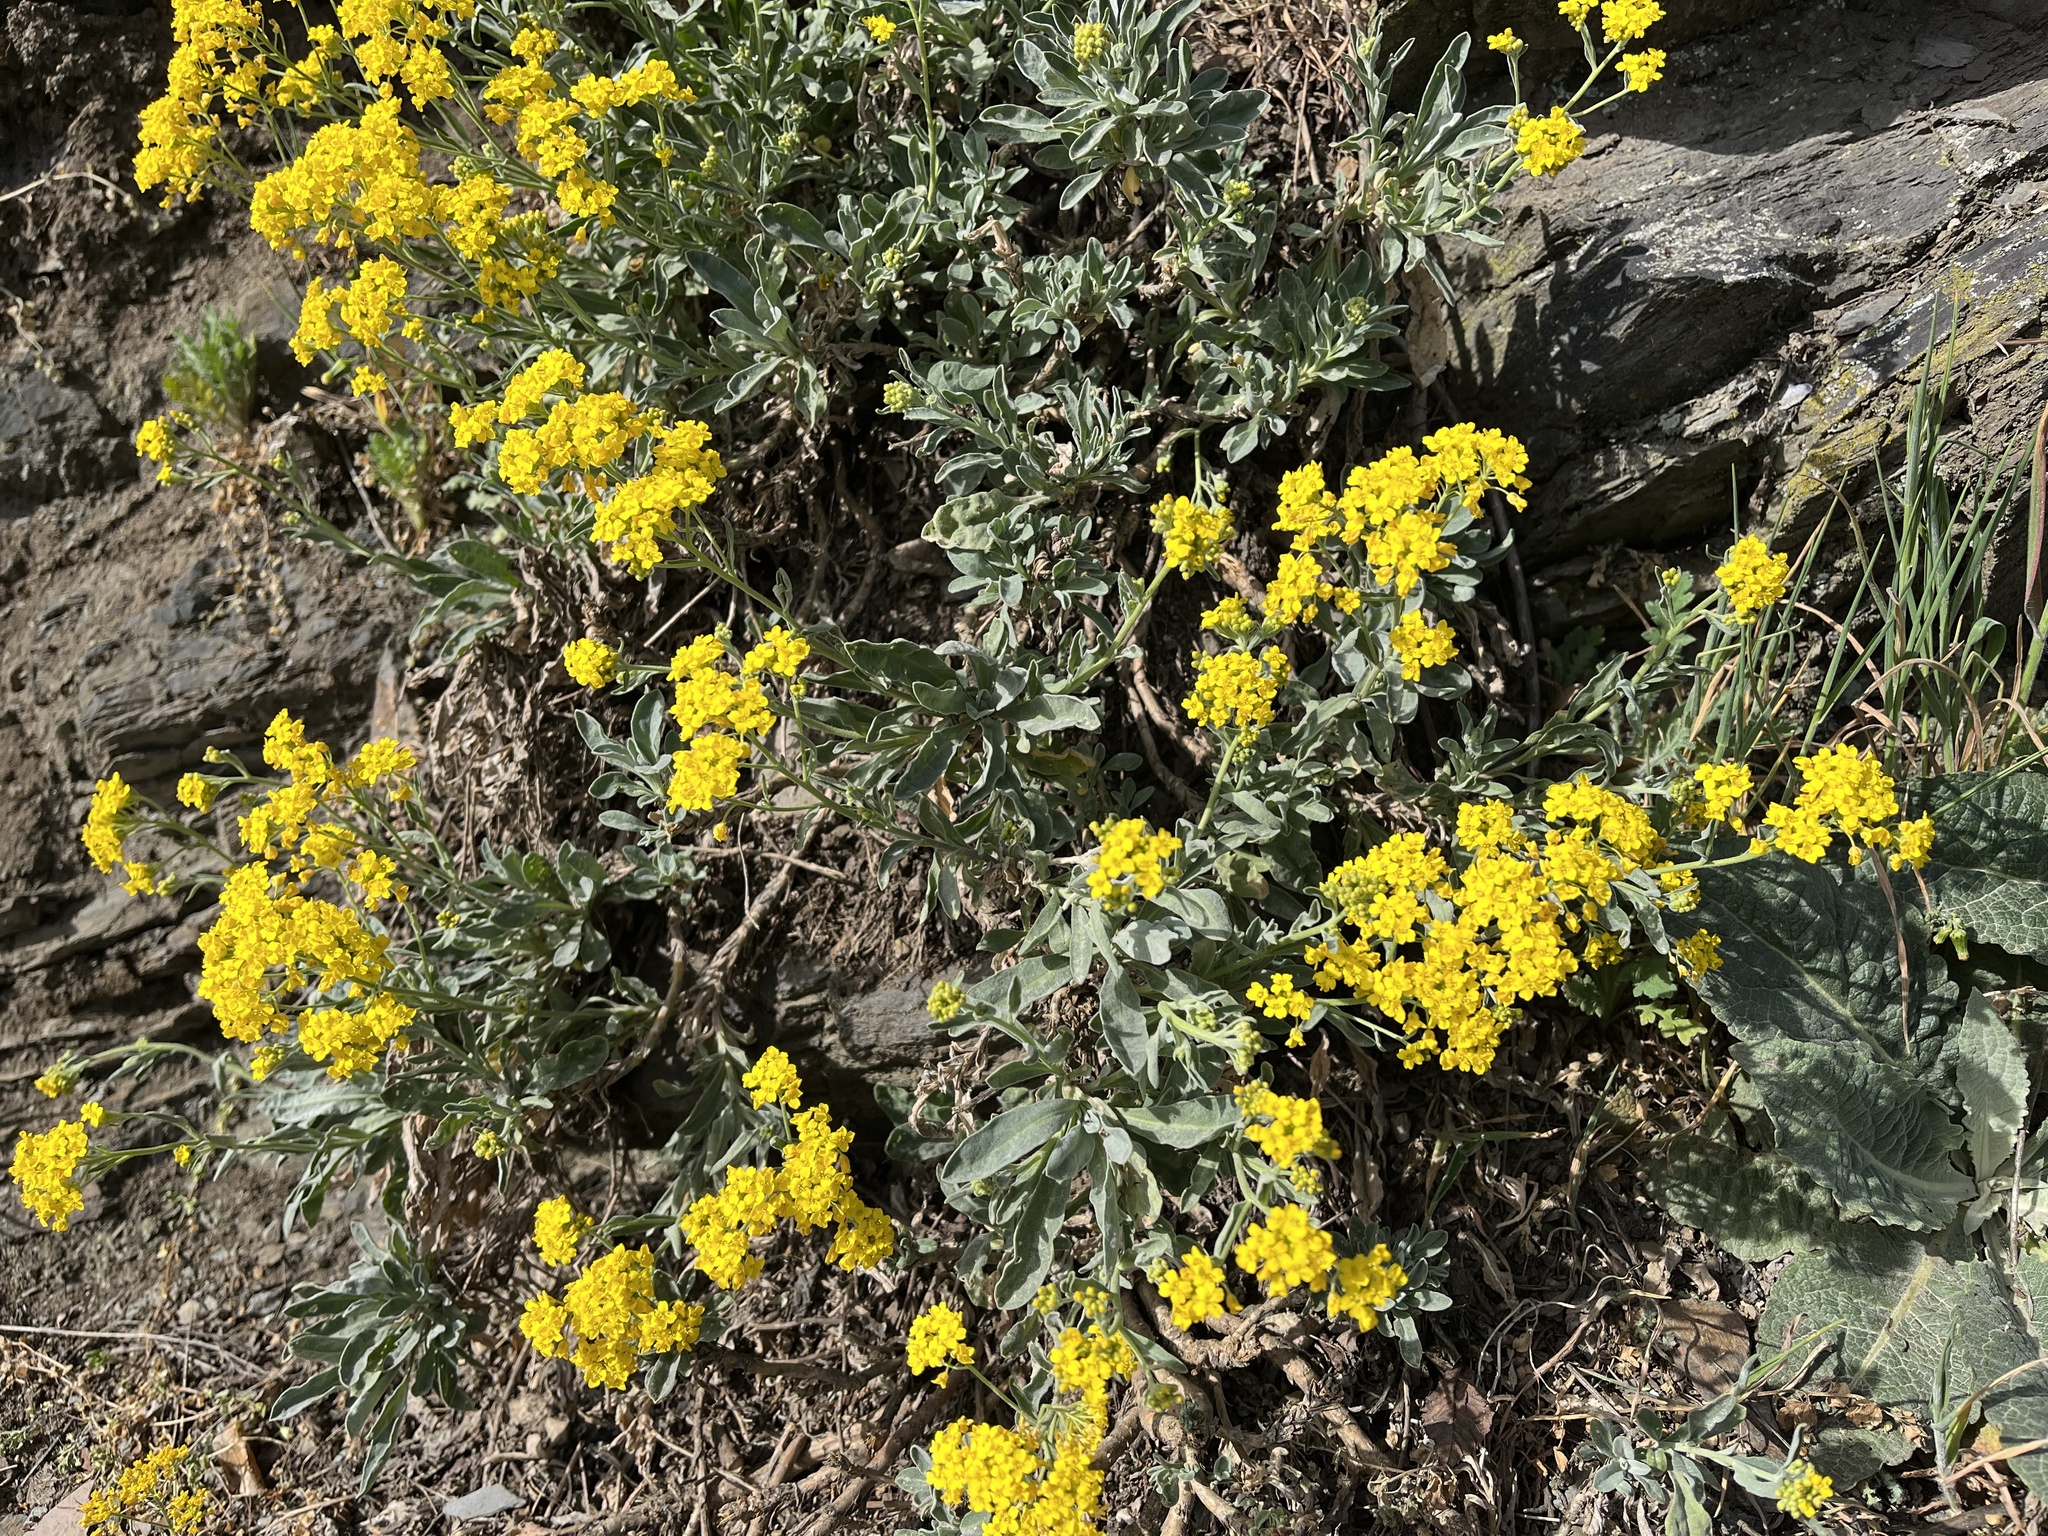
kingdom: Plantae
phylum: Tracheophyta
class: Magnoliopsida
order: Brassicales
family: Brassicaceae
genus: Aurinia
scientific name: Aurinia saxatilis
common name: Golden-tuft alyssum
